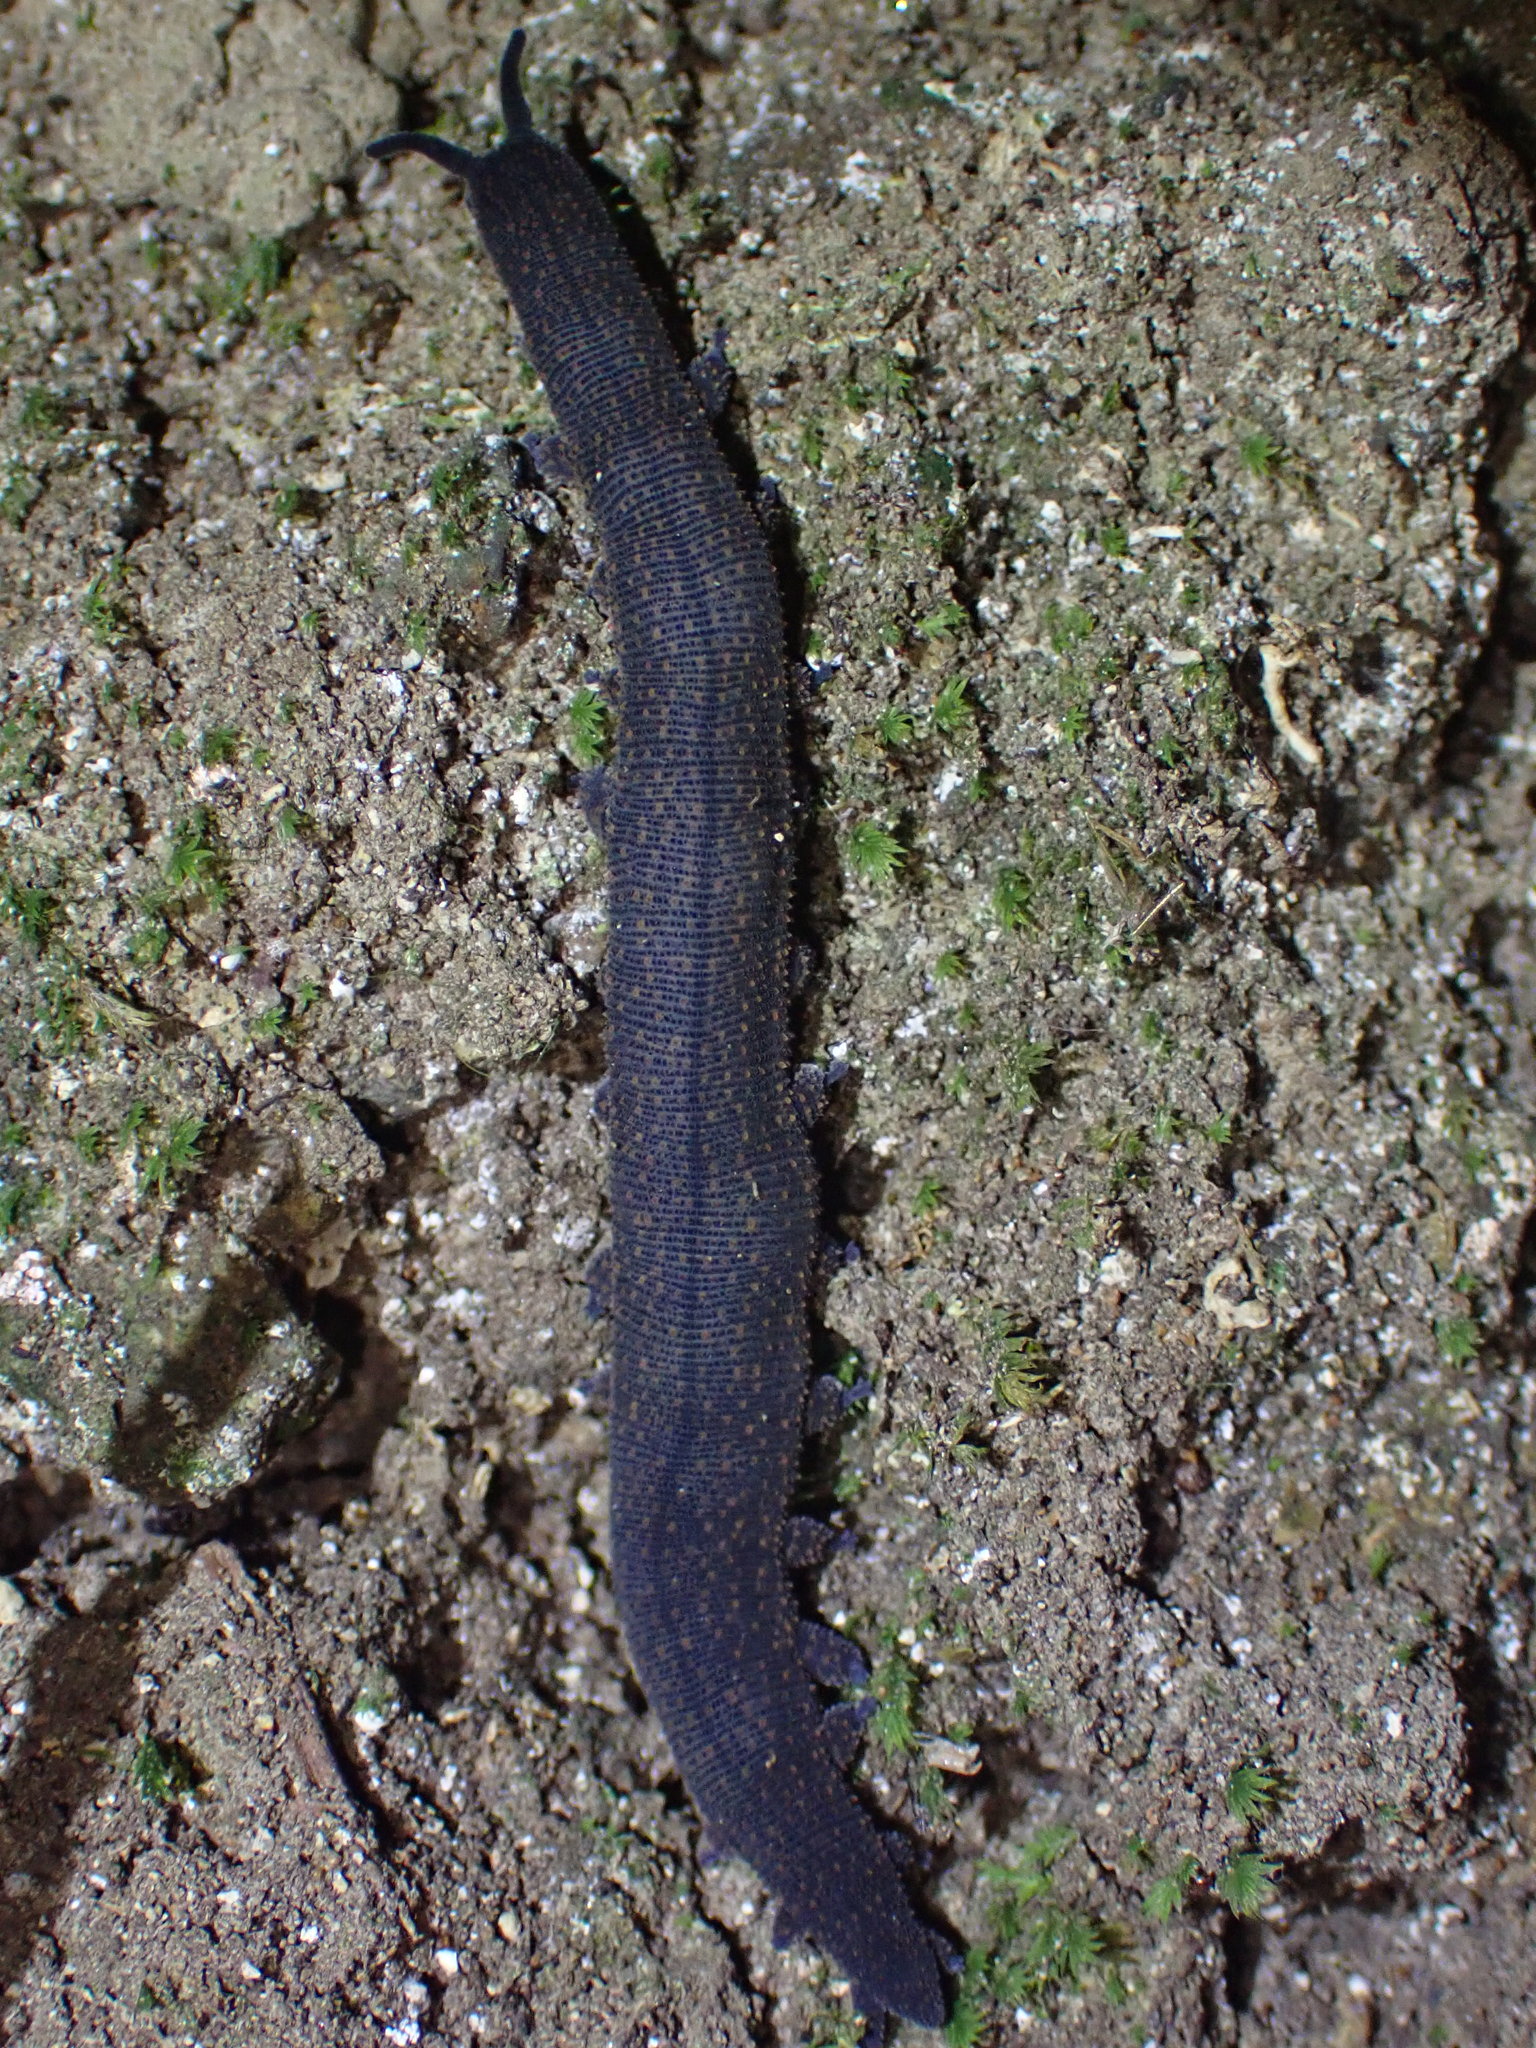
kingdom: Animalia
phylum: Onychophora
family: Peripatopsidae
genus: Peripatoides
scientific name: Peripatoides novaezealandiae
